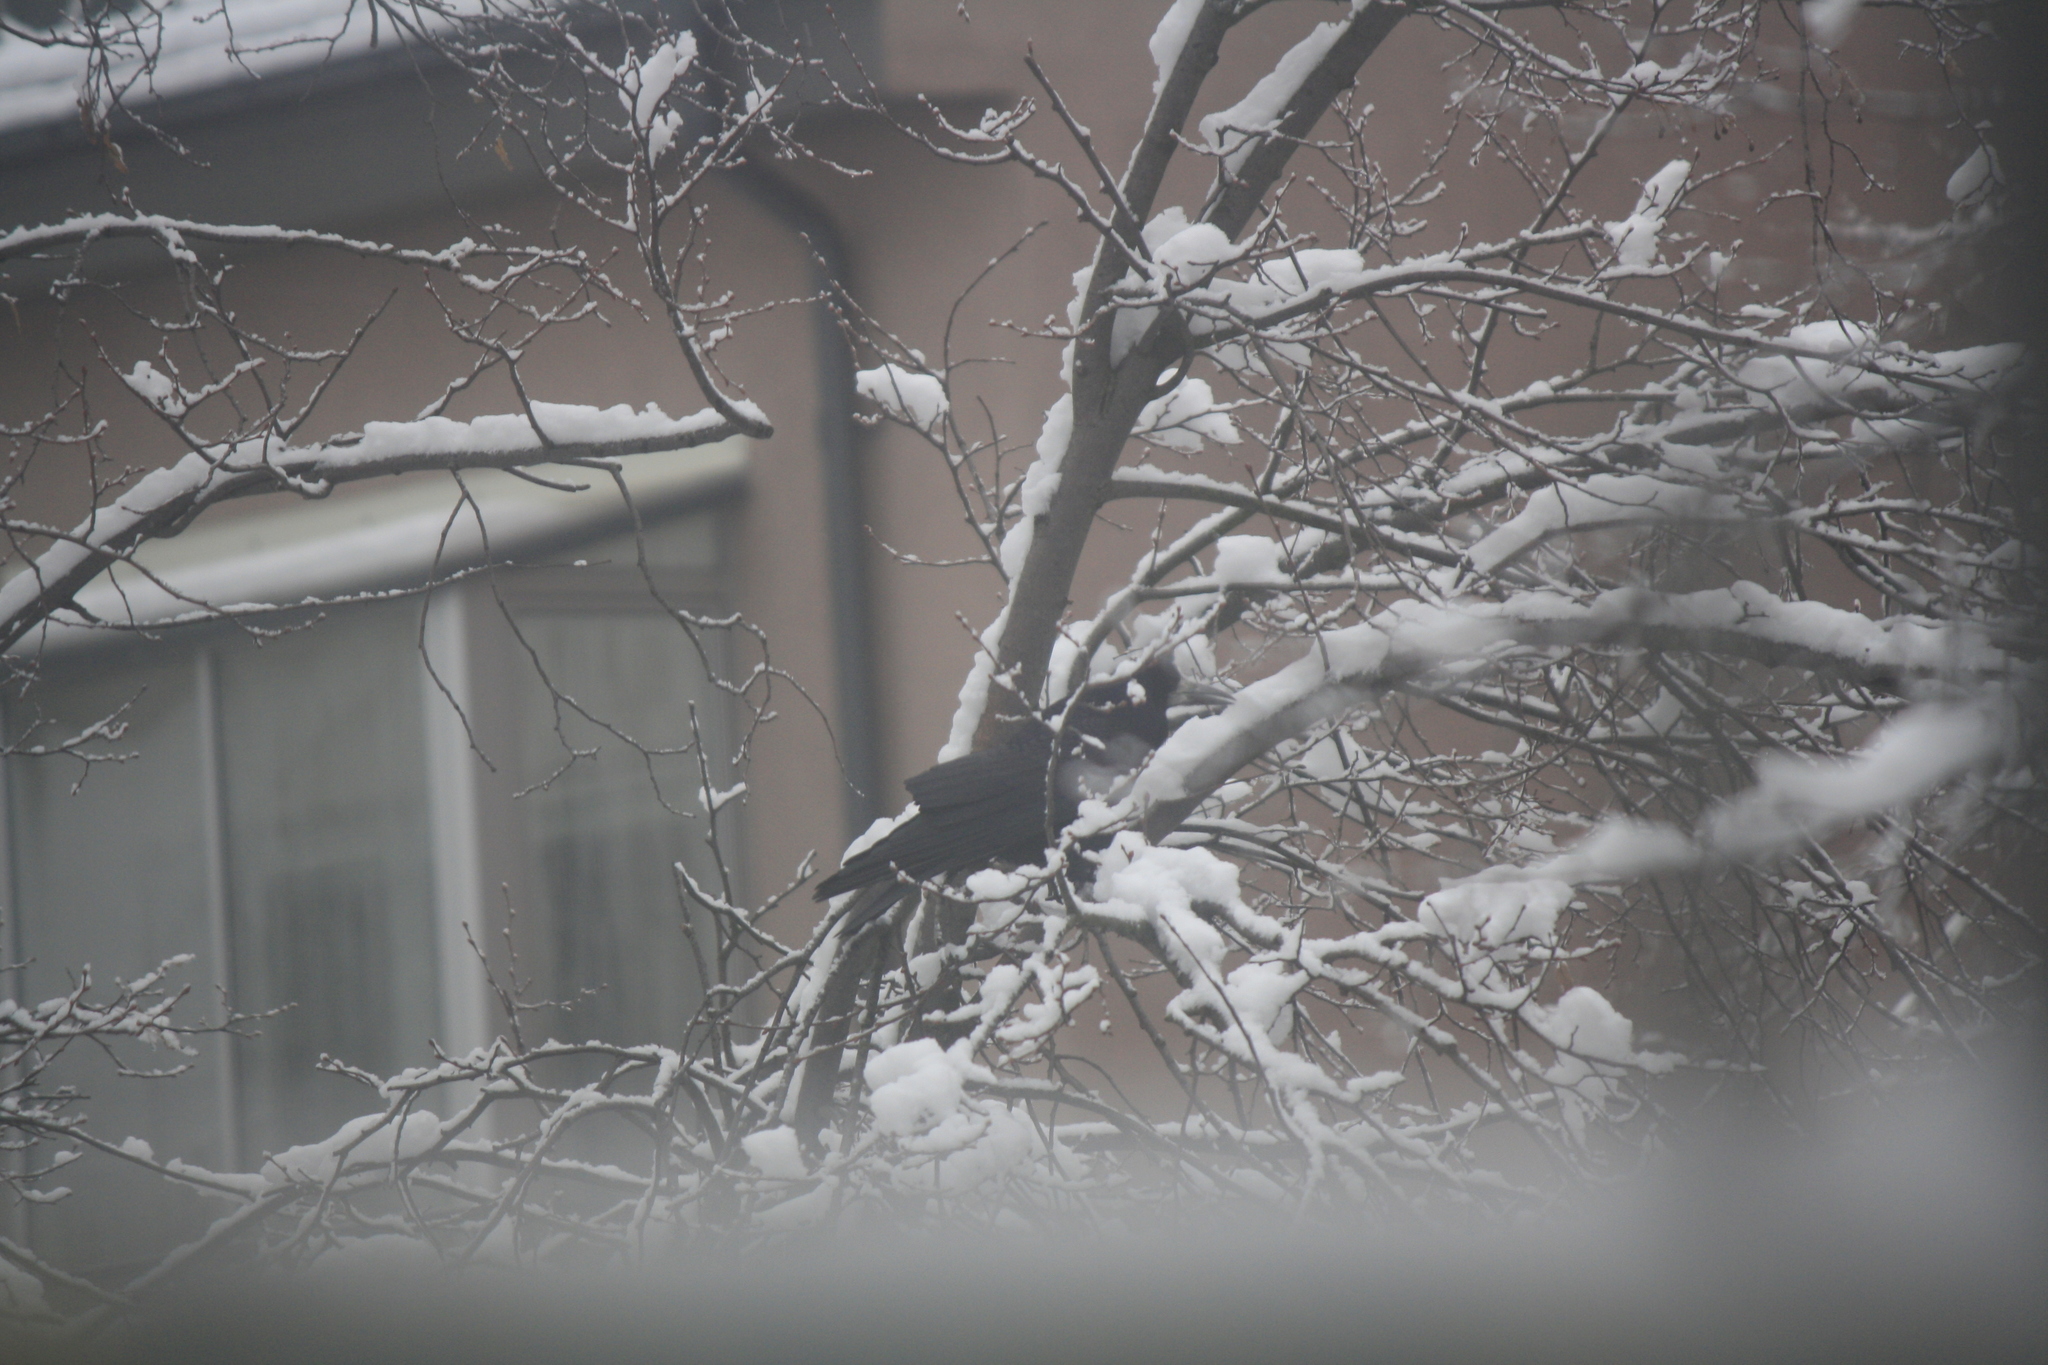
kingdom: Animalia
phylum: Chordata
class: Aves
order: Passeriformes
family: Corvidae
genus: Corvus
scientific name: Corvus frugilegus
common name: Rook
